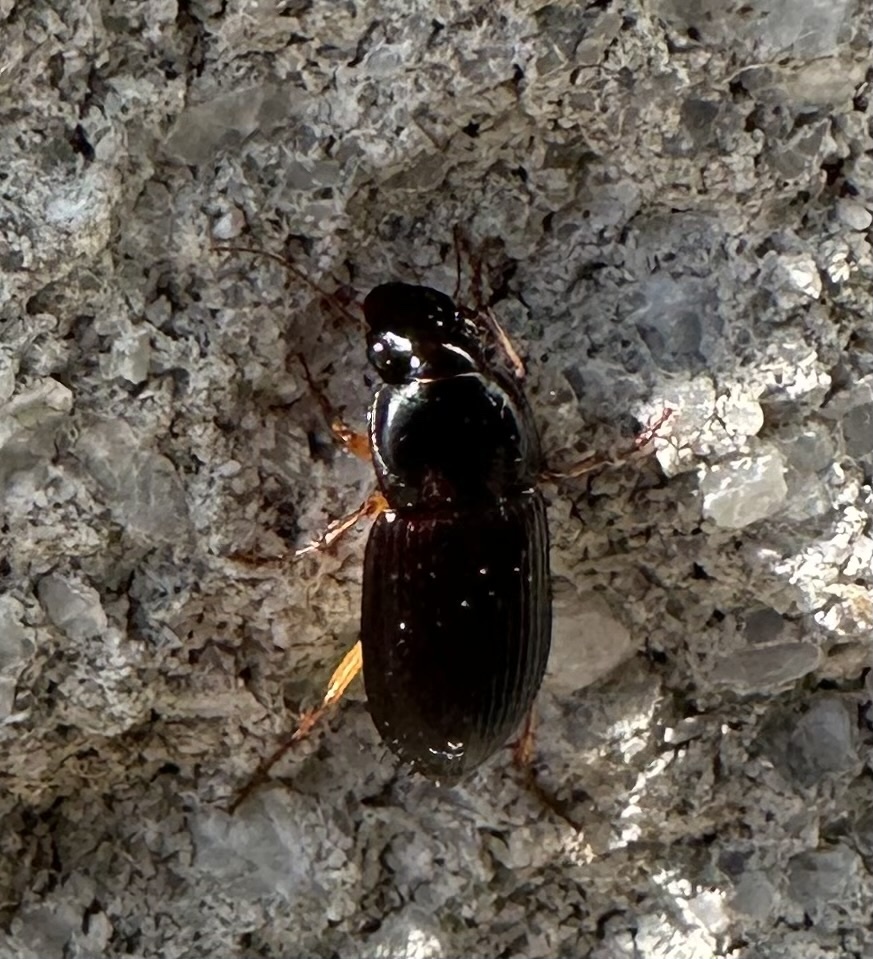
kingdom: Animalia
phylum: Arthropoda
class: Insecta
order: Coleoptera
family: Carabidae
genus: Harpalus
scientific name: Harpalus pensylvanicus
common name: Pennsylvania dingy ground beetle
